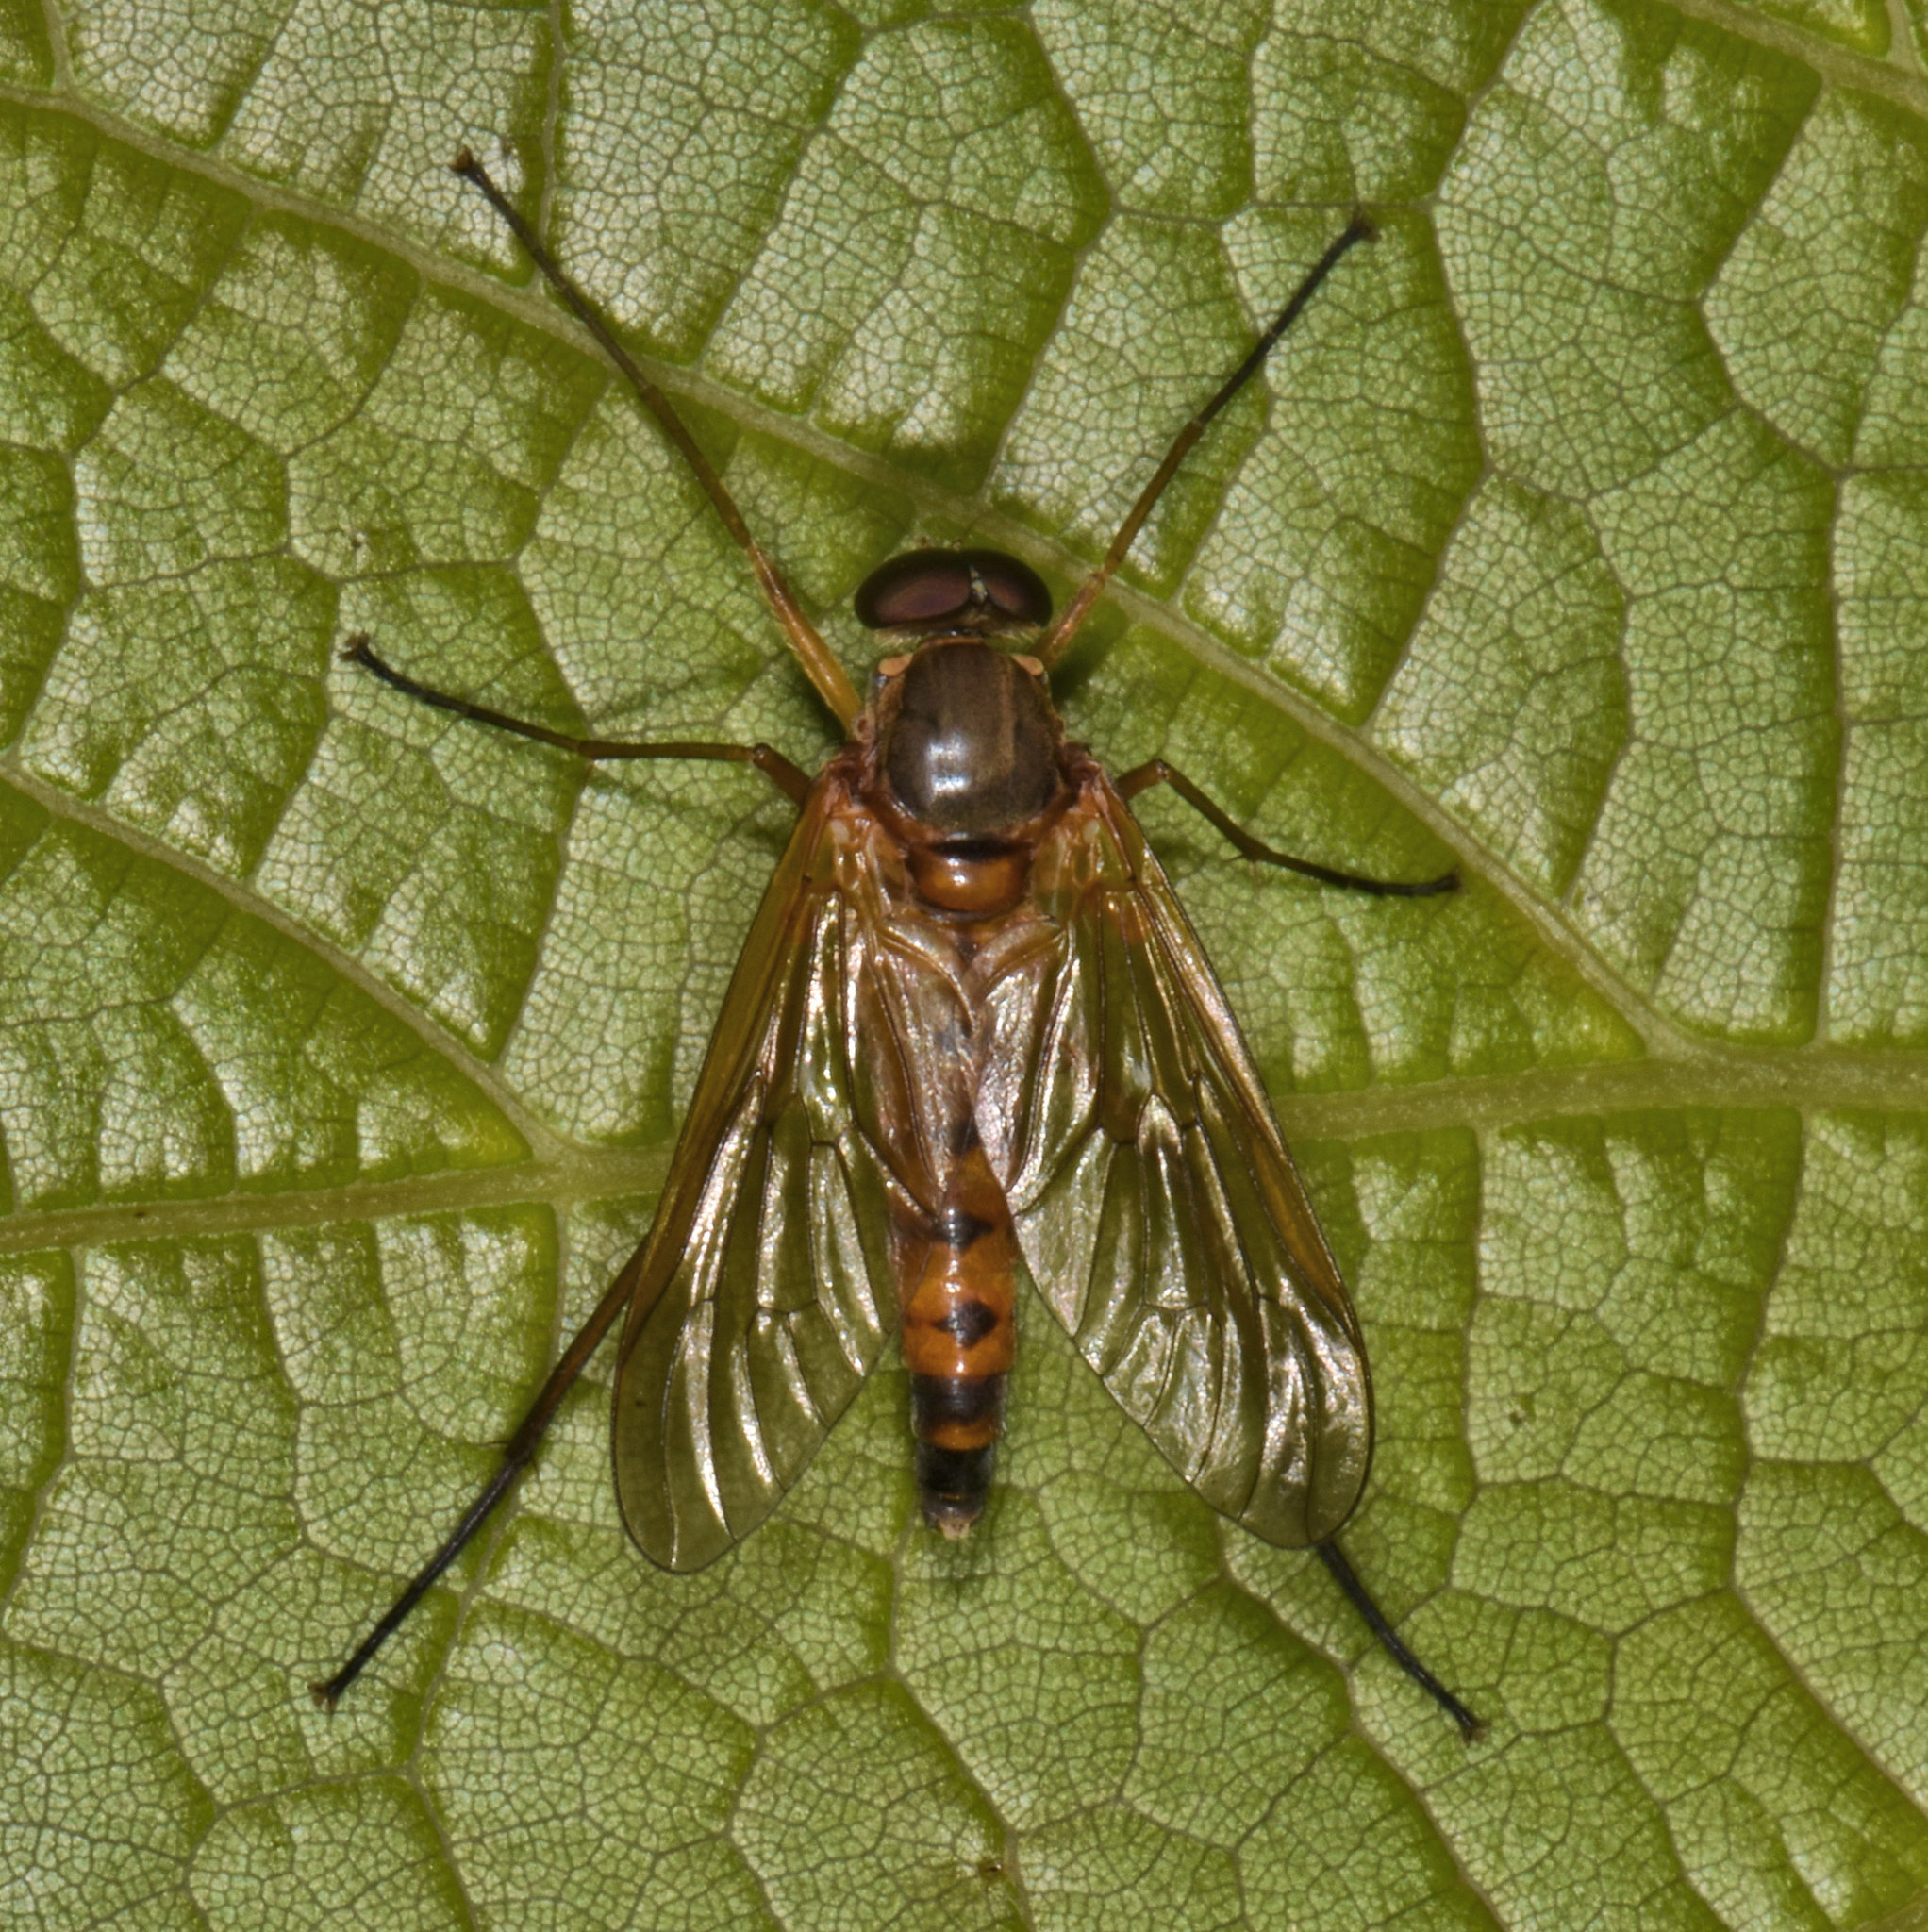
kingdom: Animalia
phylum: Arthropoda
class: Insecta
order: Diptera
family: Rhagionidae
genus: Rhagio
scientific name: Rhagio tringaria
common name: Marsh snipefly
